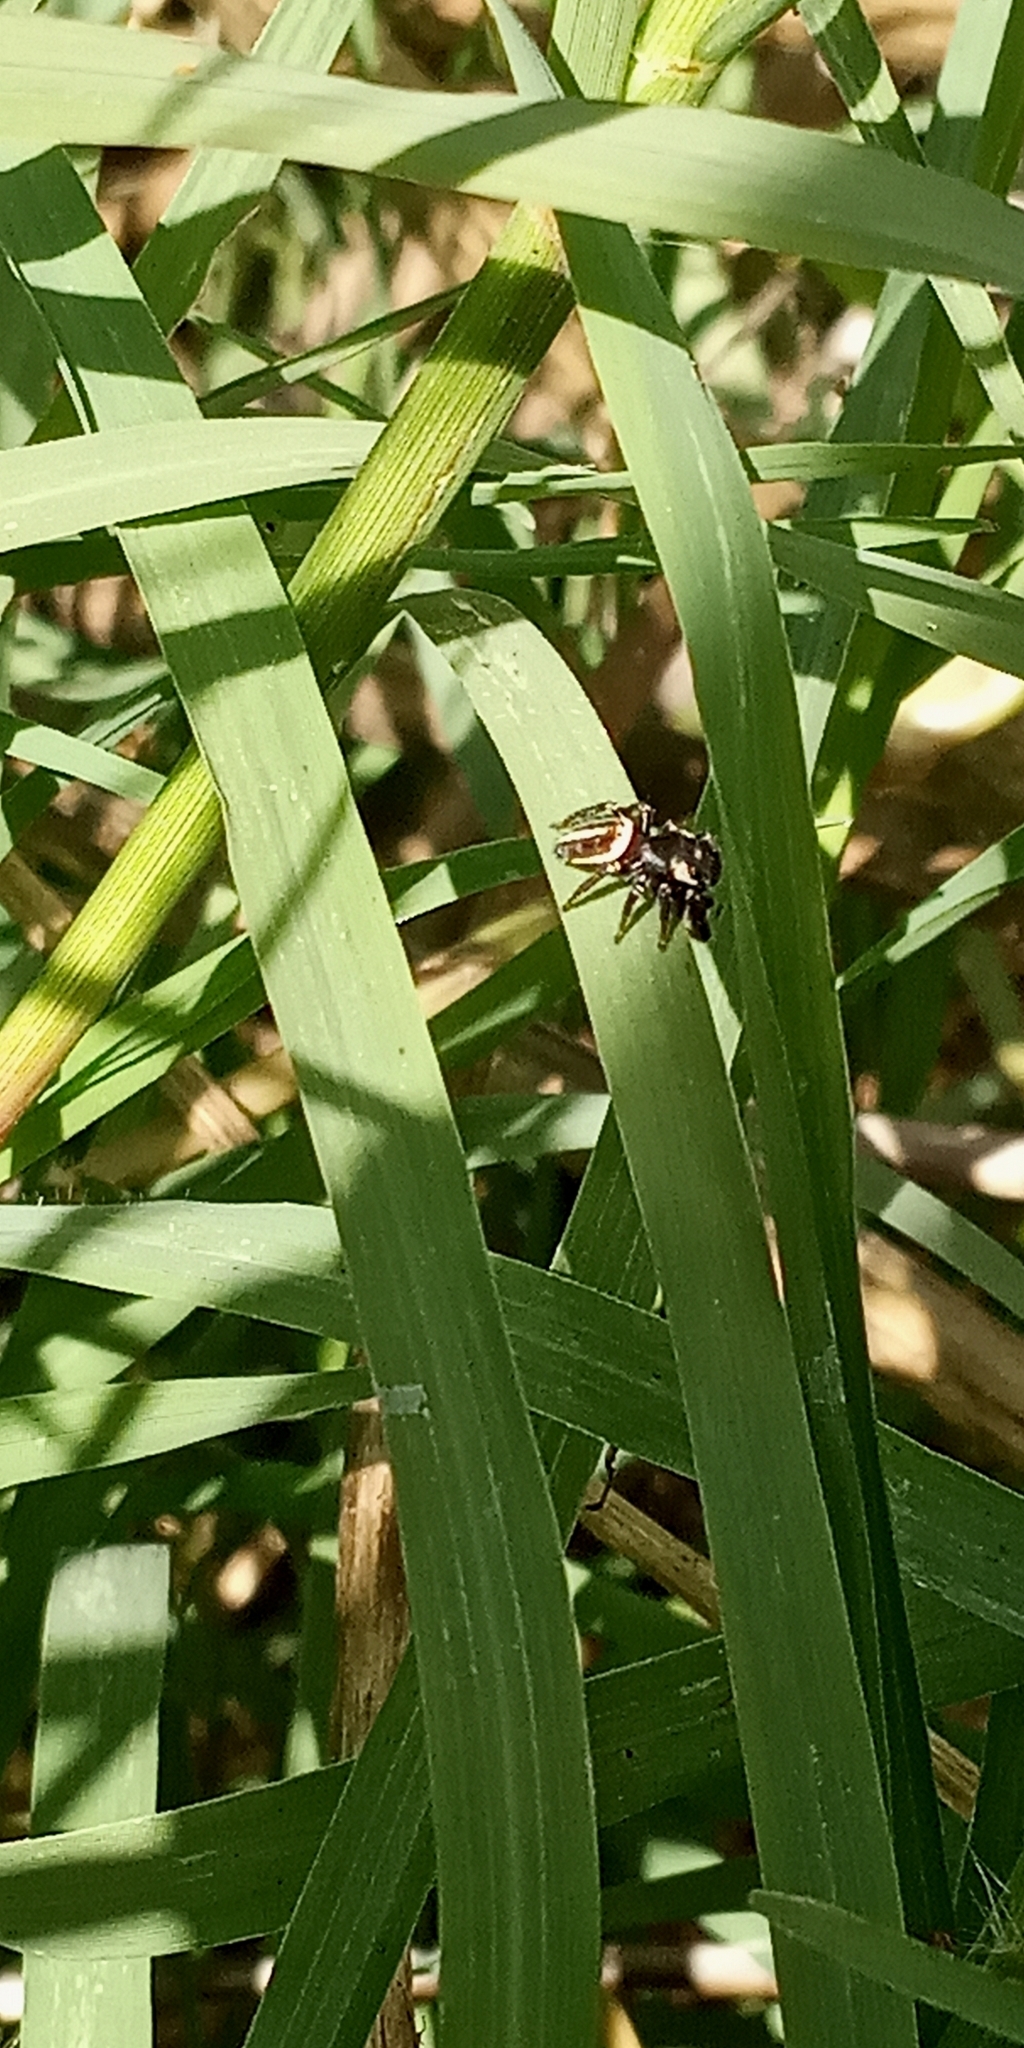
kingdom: Animalia
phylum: Arthropoda
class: Arachnida
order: Araneae
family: Salticidae
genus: Dendryphantes
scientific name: Dendryphantes mordax
